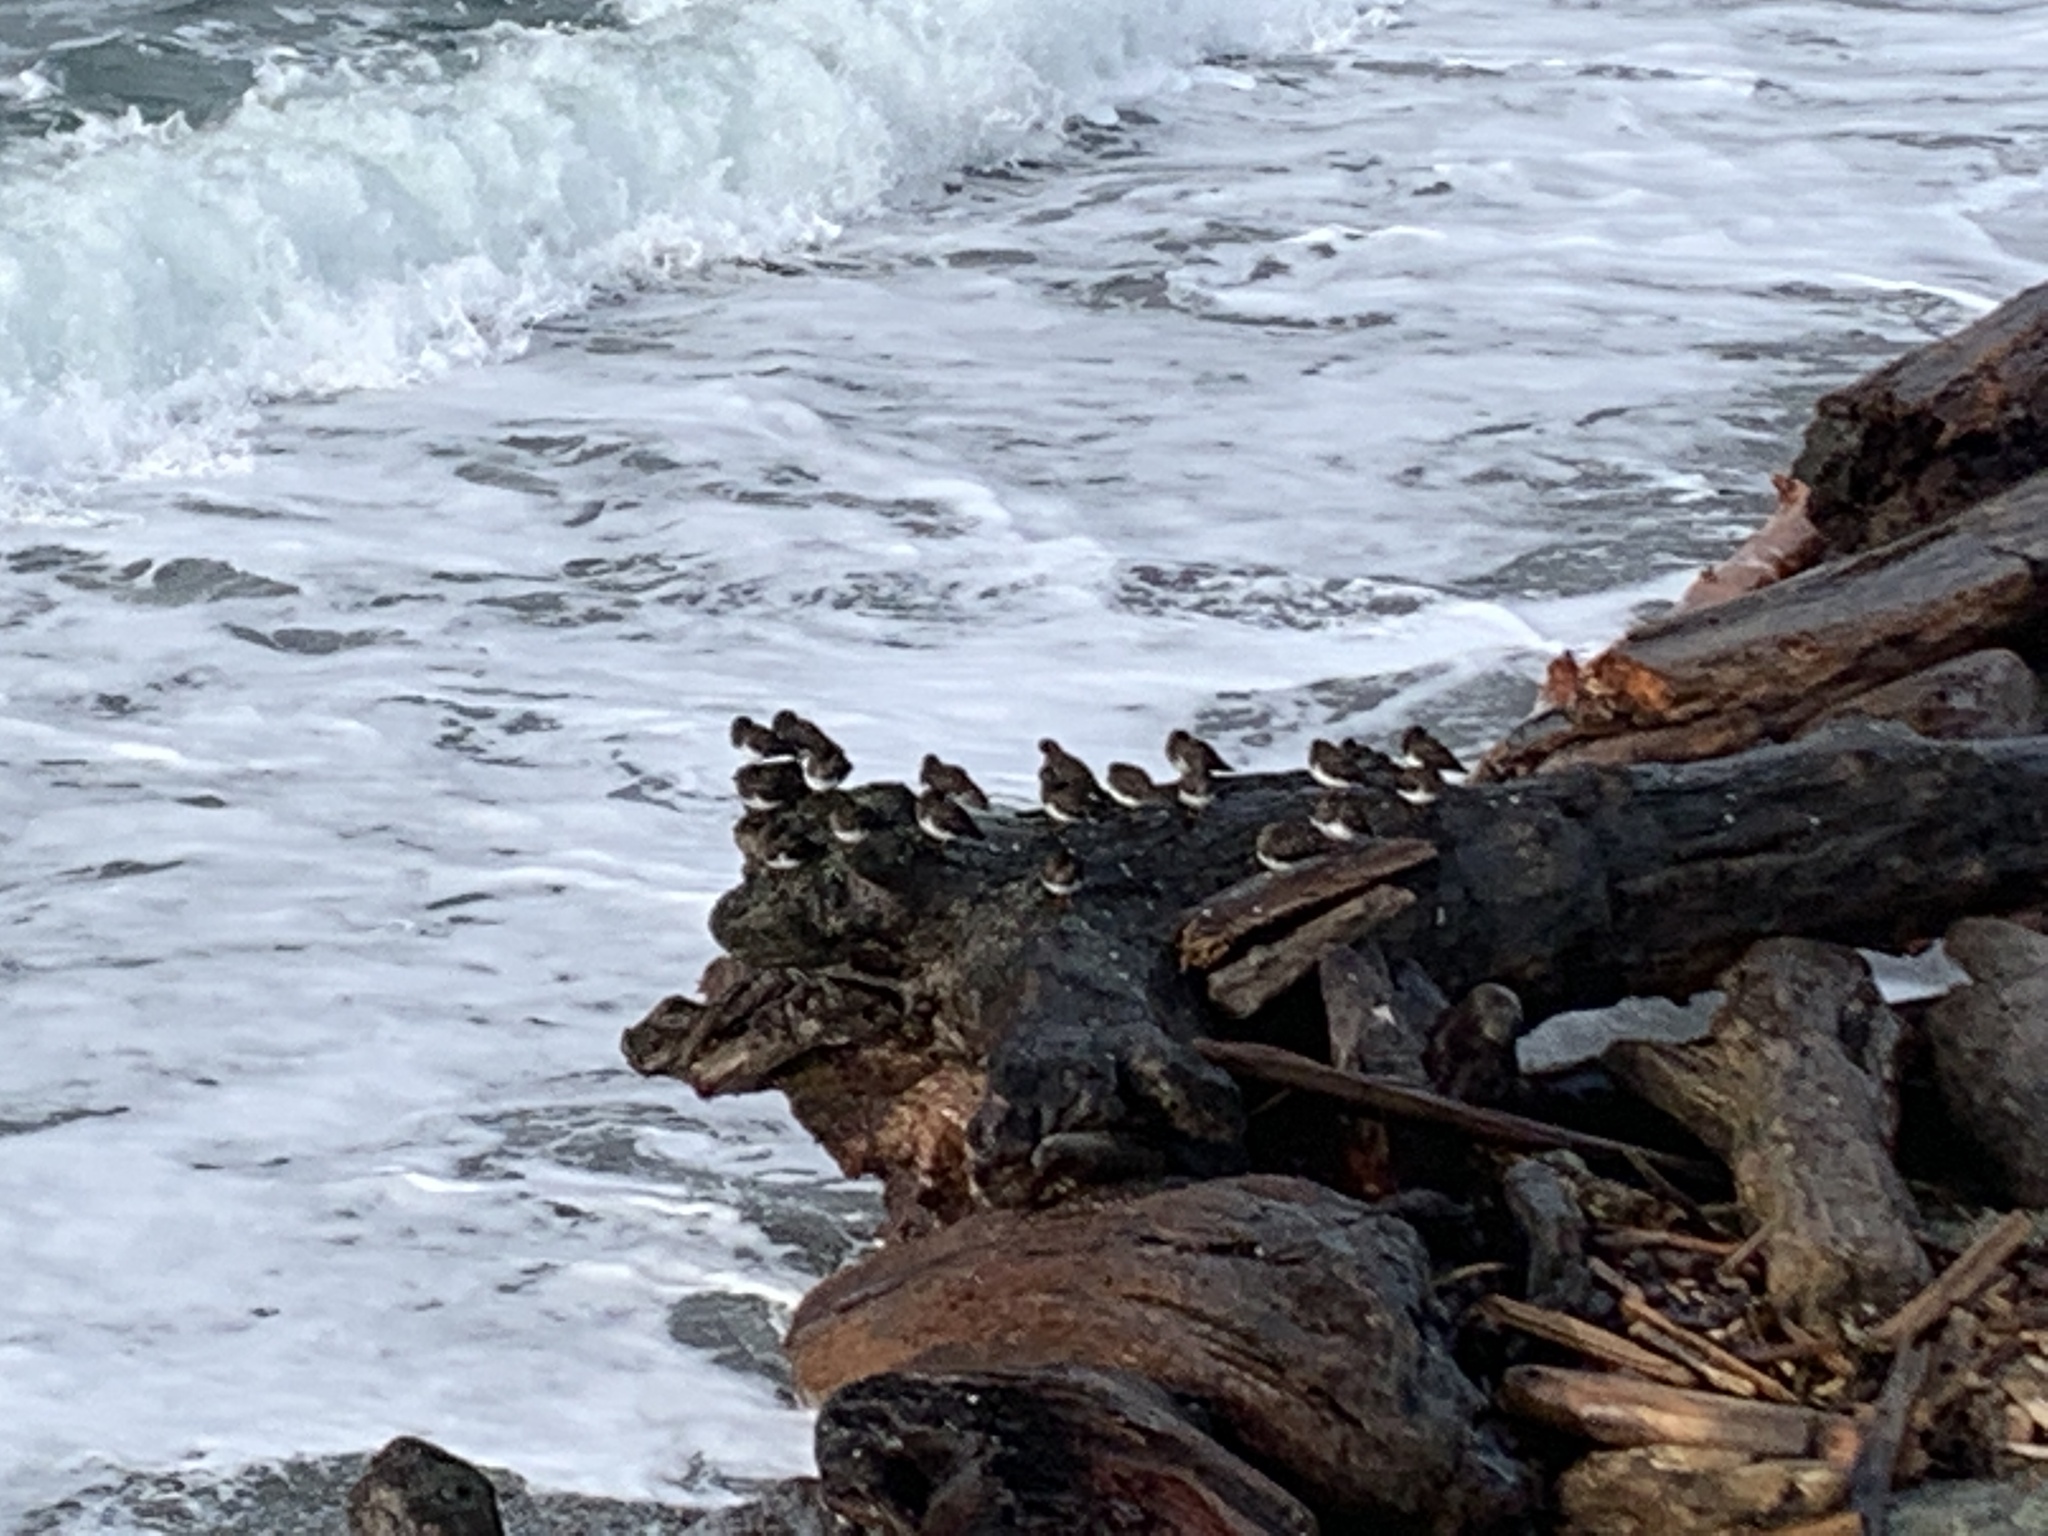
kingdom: Animalia
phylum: Chordata
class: Aves
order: Charadriiformes
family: Scolopacidae
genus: Arenaria
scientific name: Arenaria melanocephala
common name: Black turnstone
